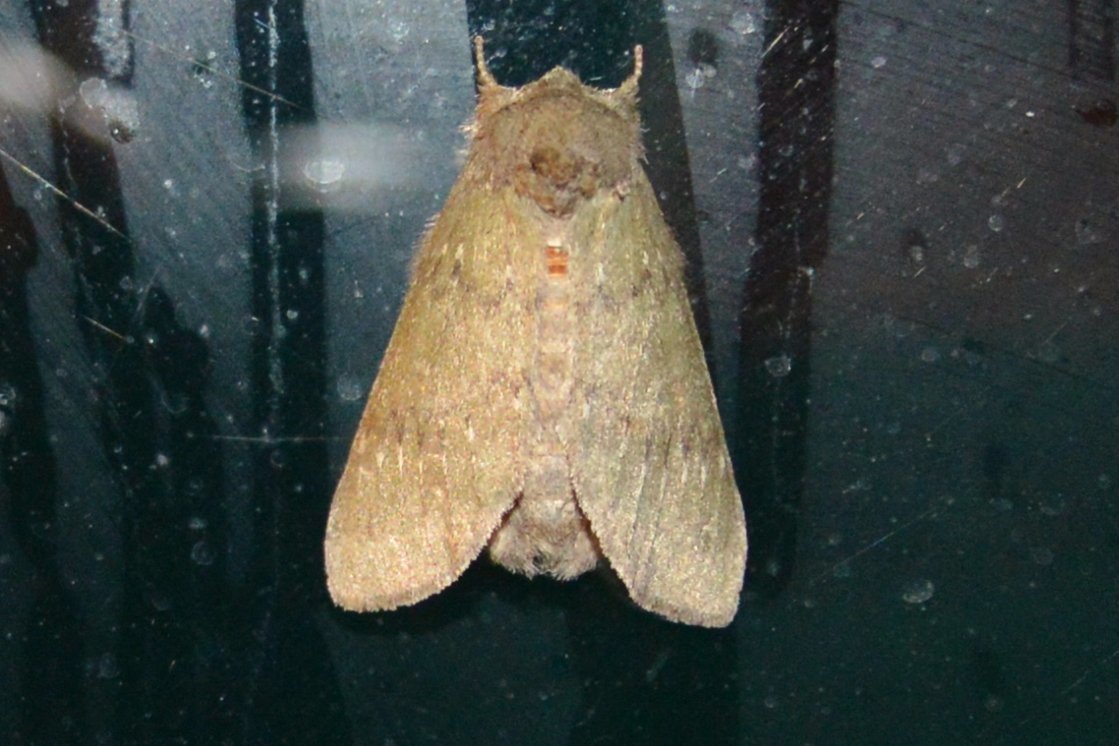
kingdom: Animalia
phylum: Arthropoda
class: Insecta
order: Lepidoptera
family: Notodontidae
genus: Disphragis
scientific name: Disphragis Cecrita biundata
